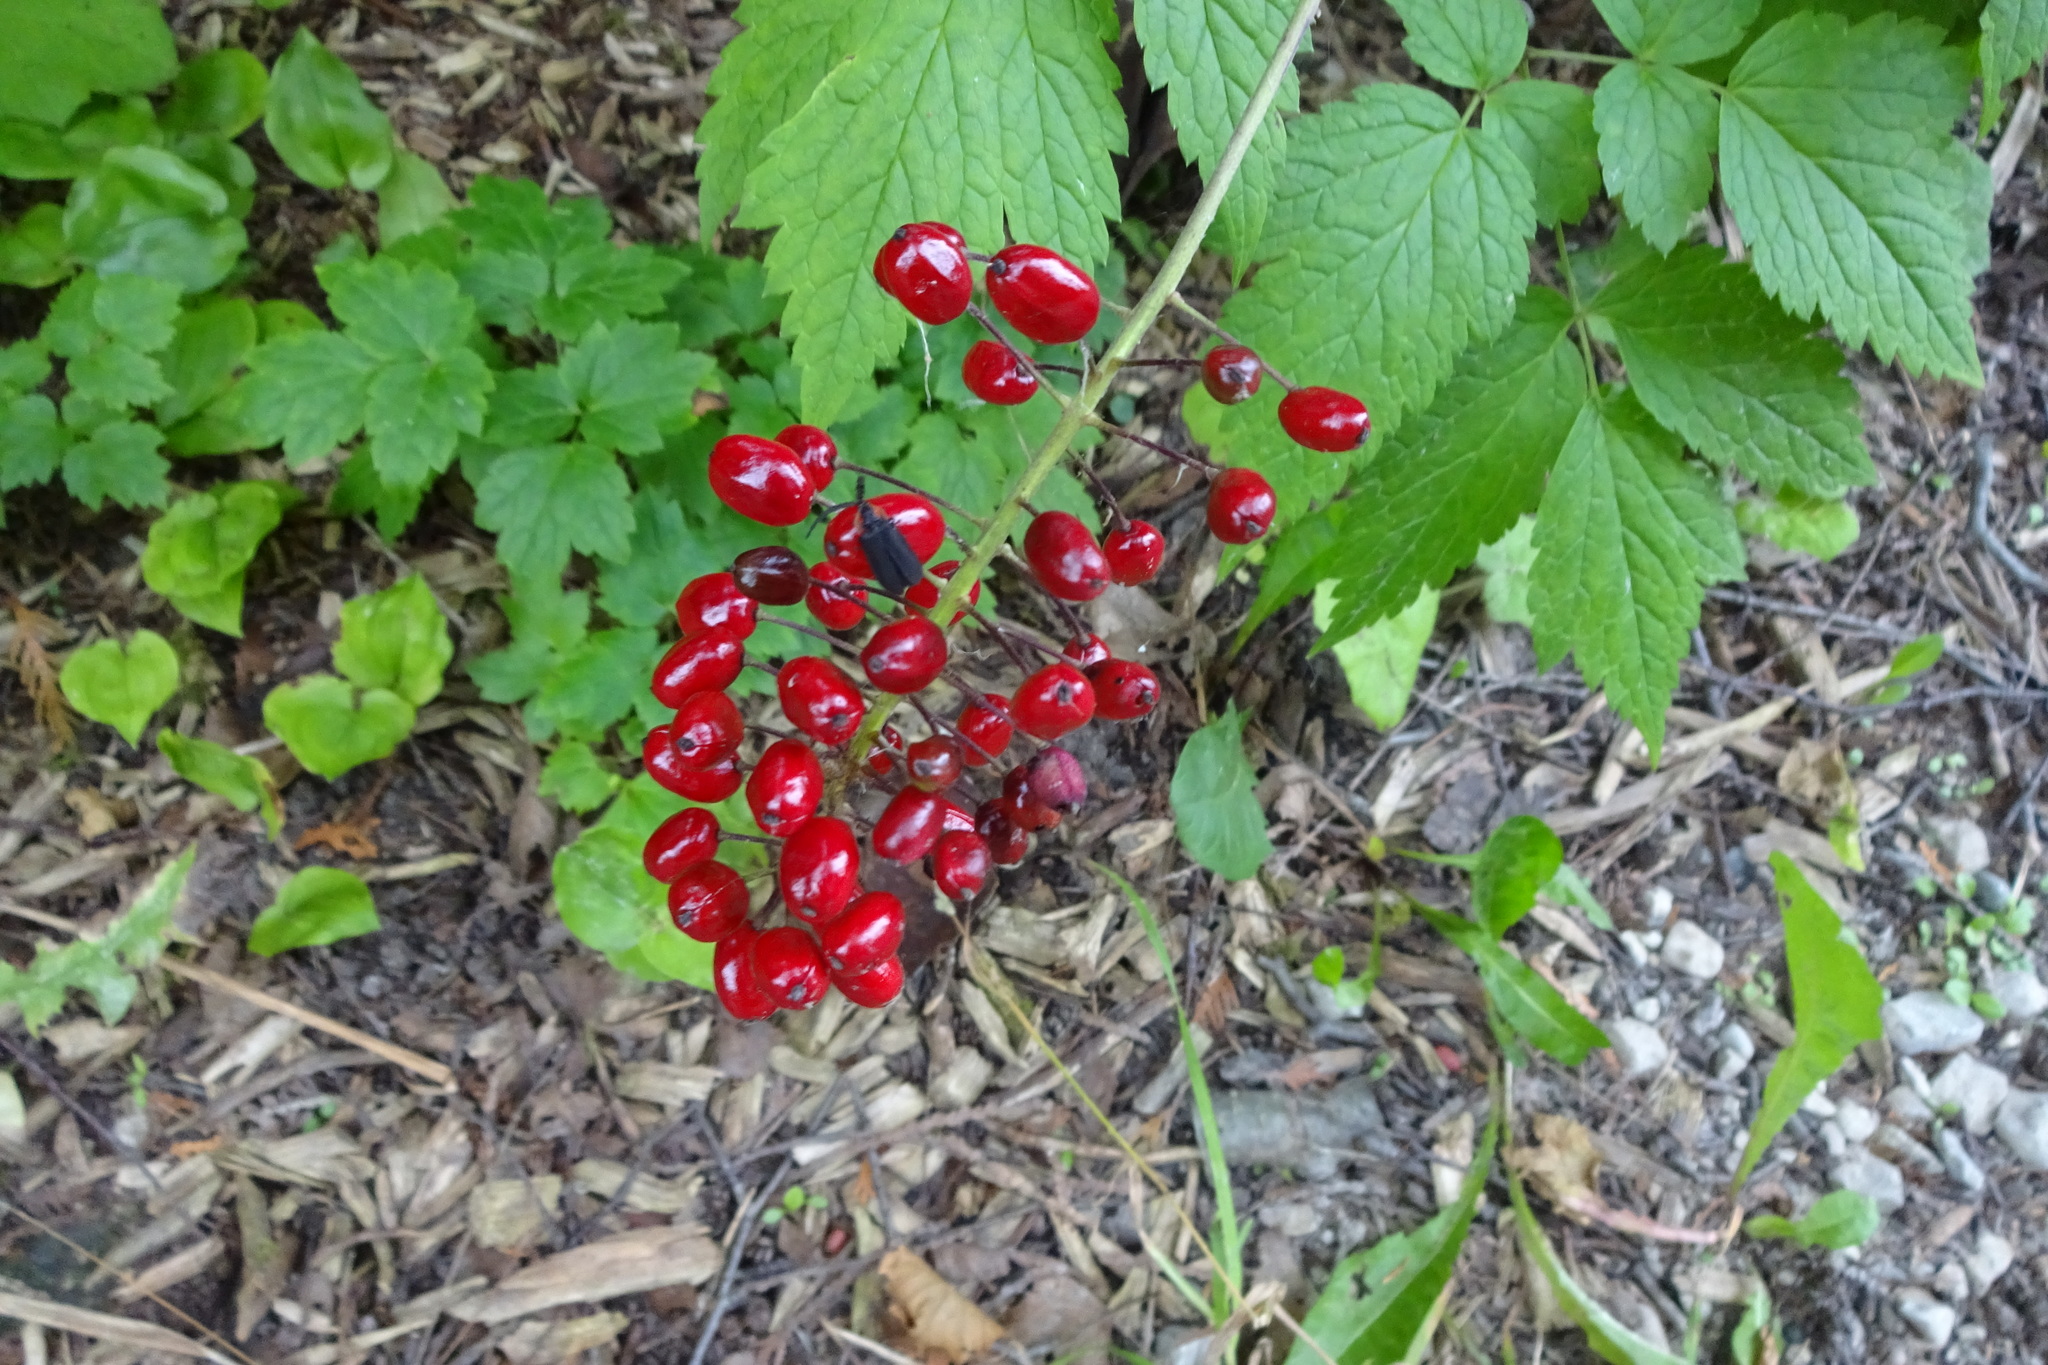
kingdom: Plantae
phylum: Tracheophyta
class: Magnoliopsida
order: Ranunculales
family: Ranunculaceae
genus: Actaea
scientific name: Actaea rubra
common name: Red baneberry
